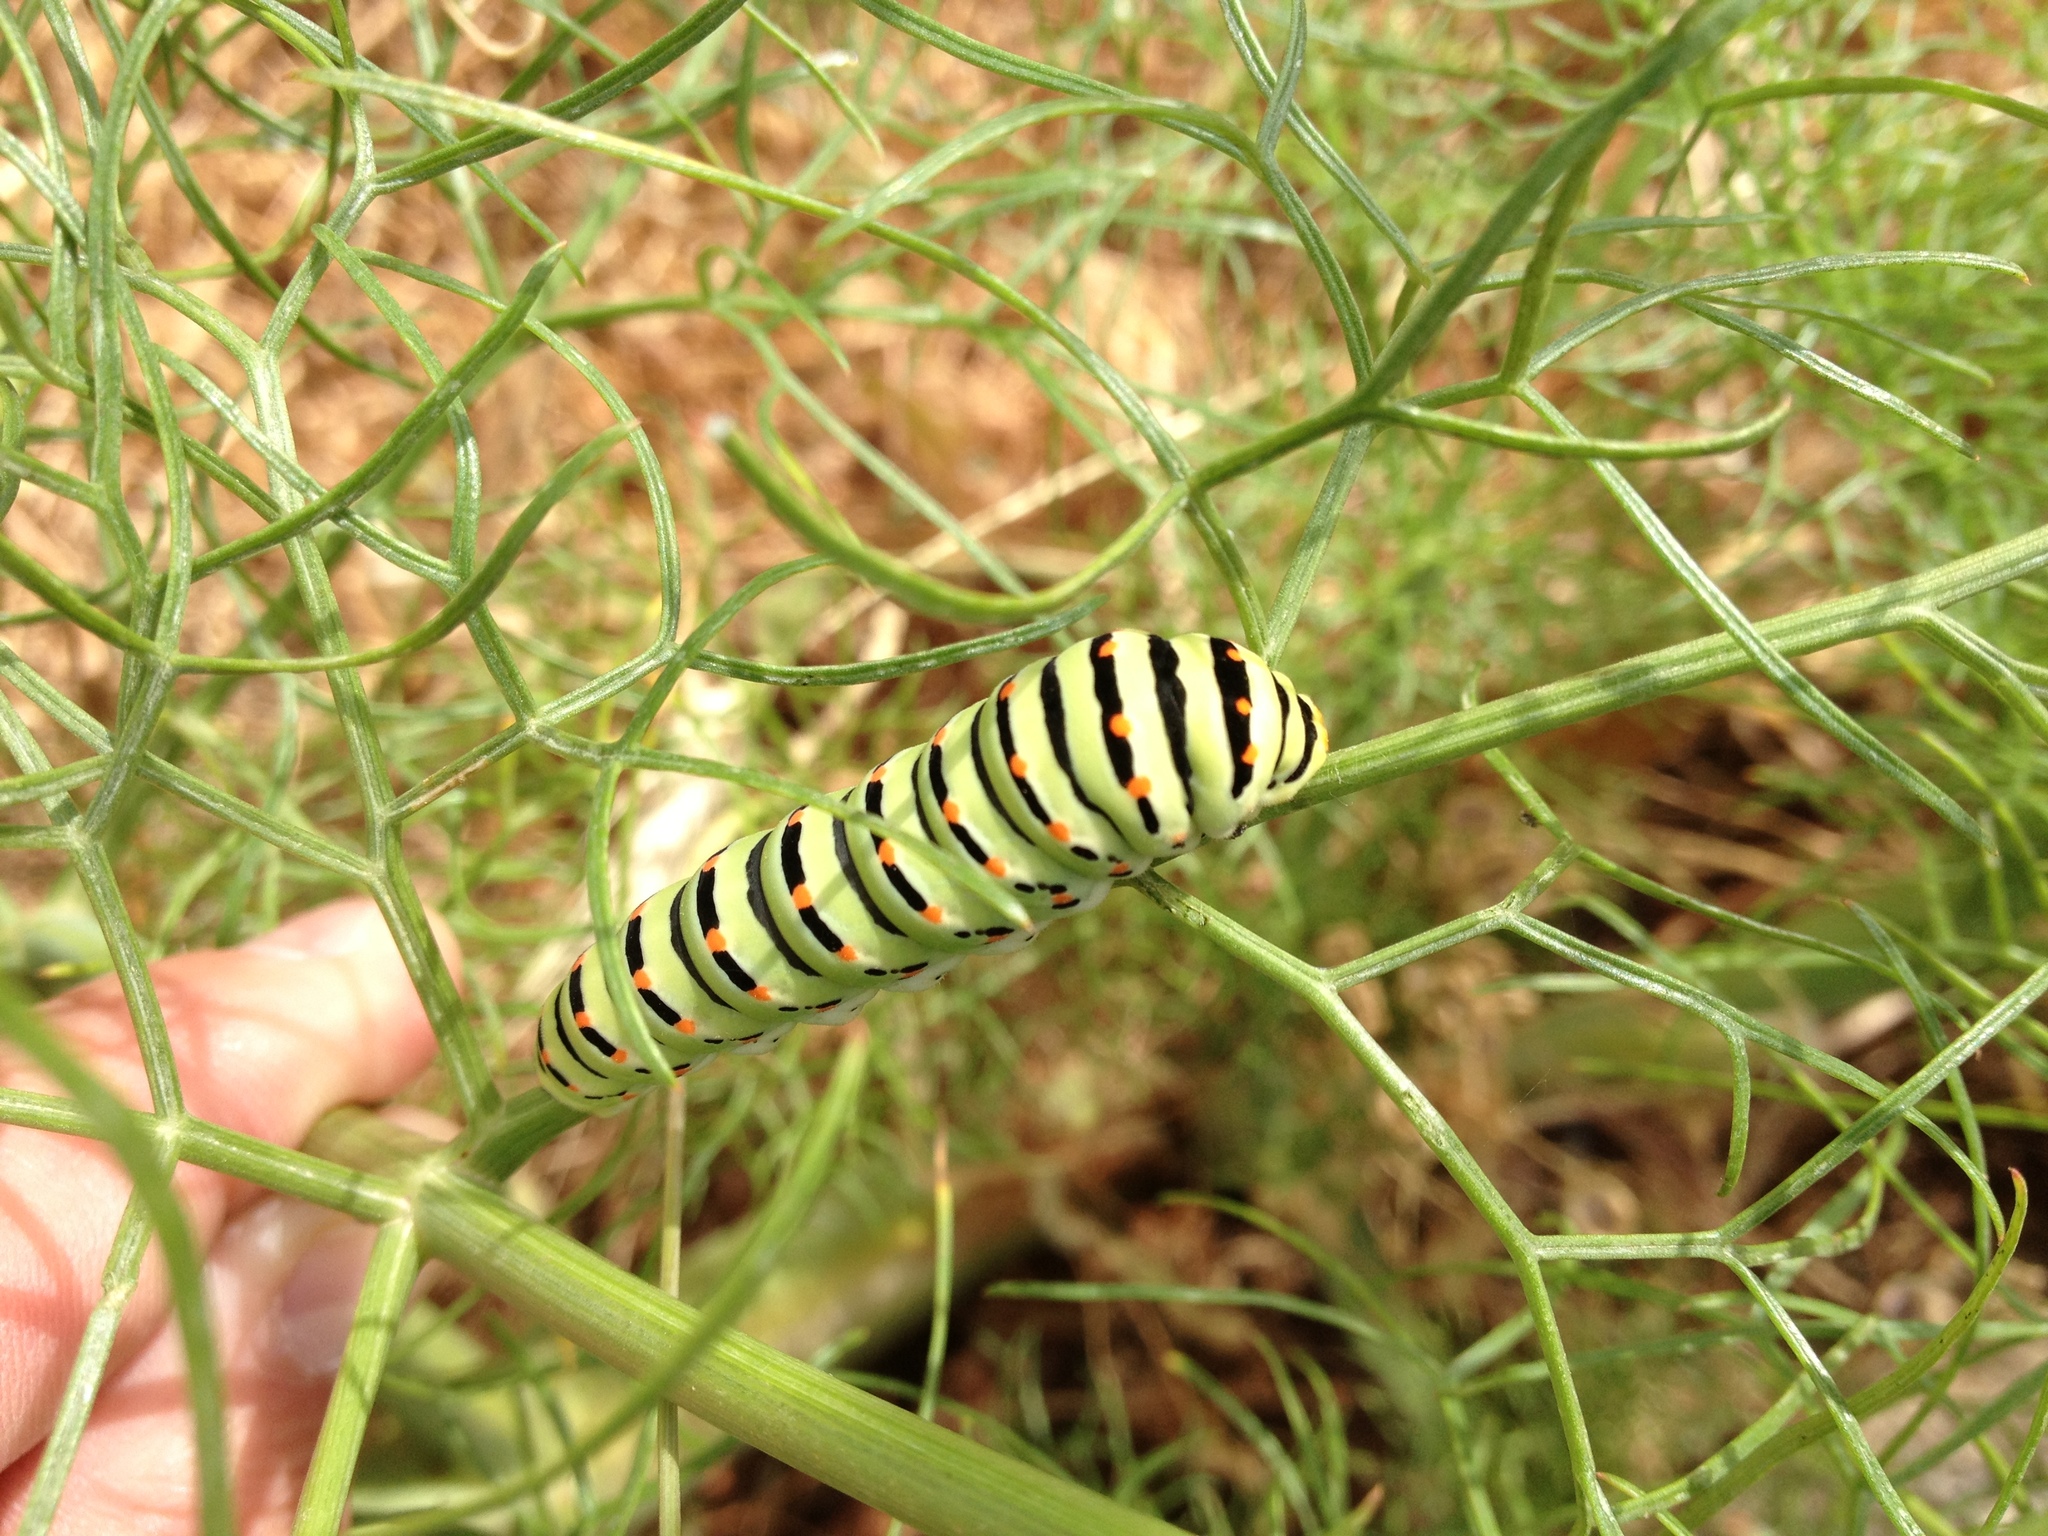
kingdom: Animalia
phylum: Arthropoda
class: Insecta
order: Lepidoptera
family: Papilionidae
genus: Papilio
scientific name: Papilio machaon
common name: Swallowtail
